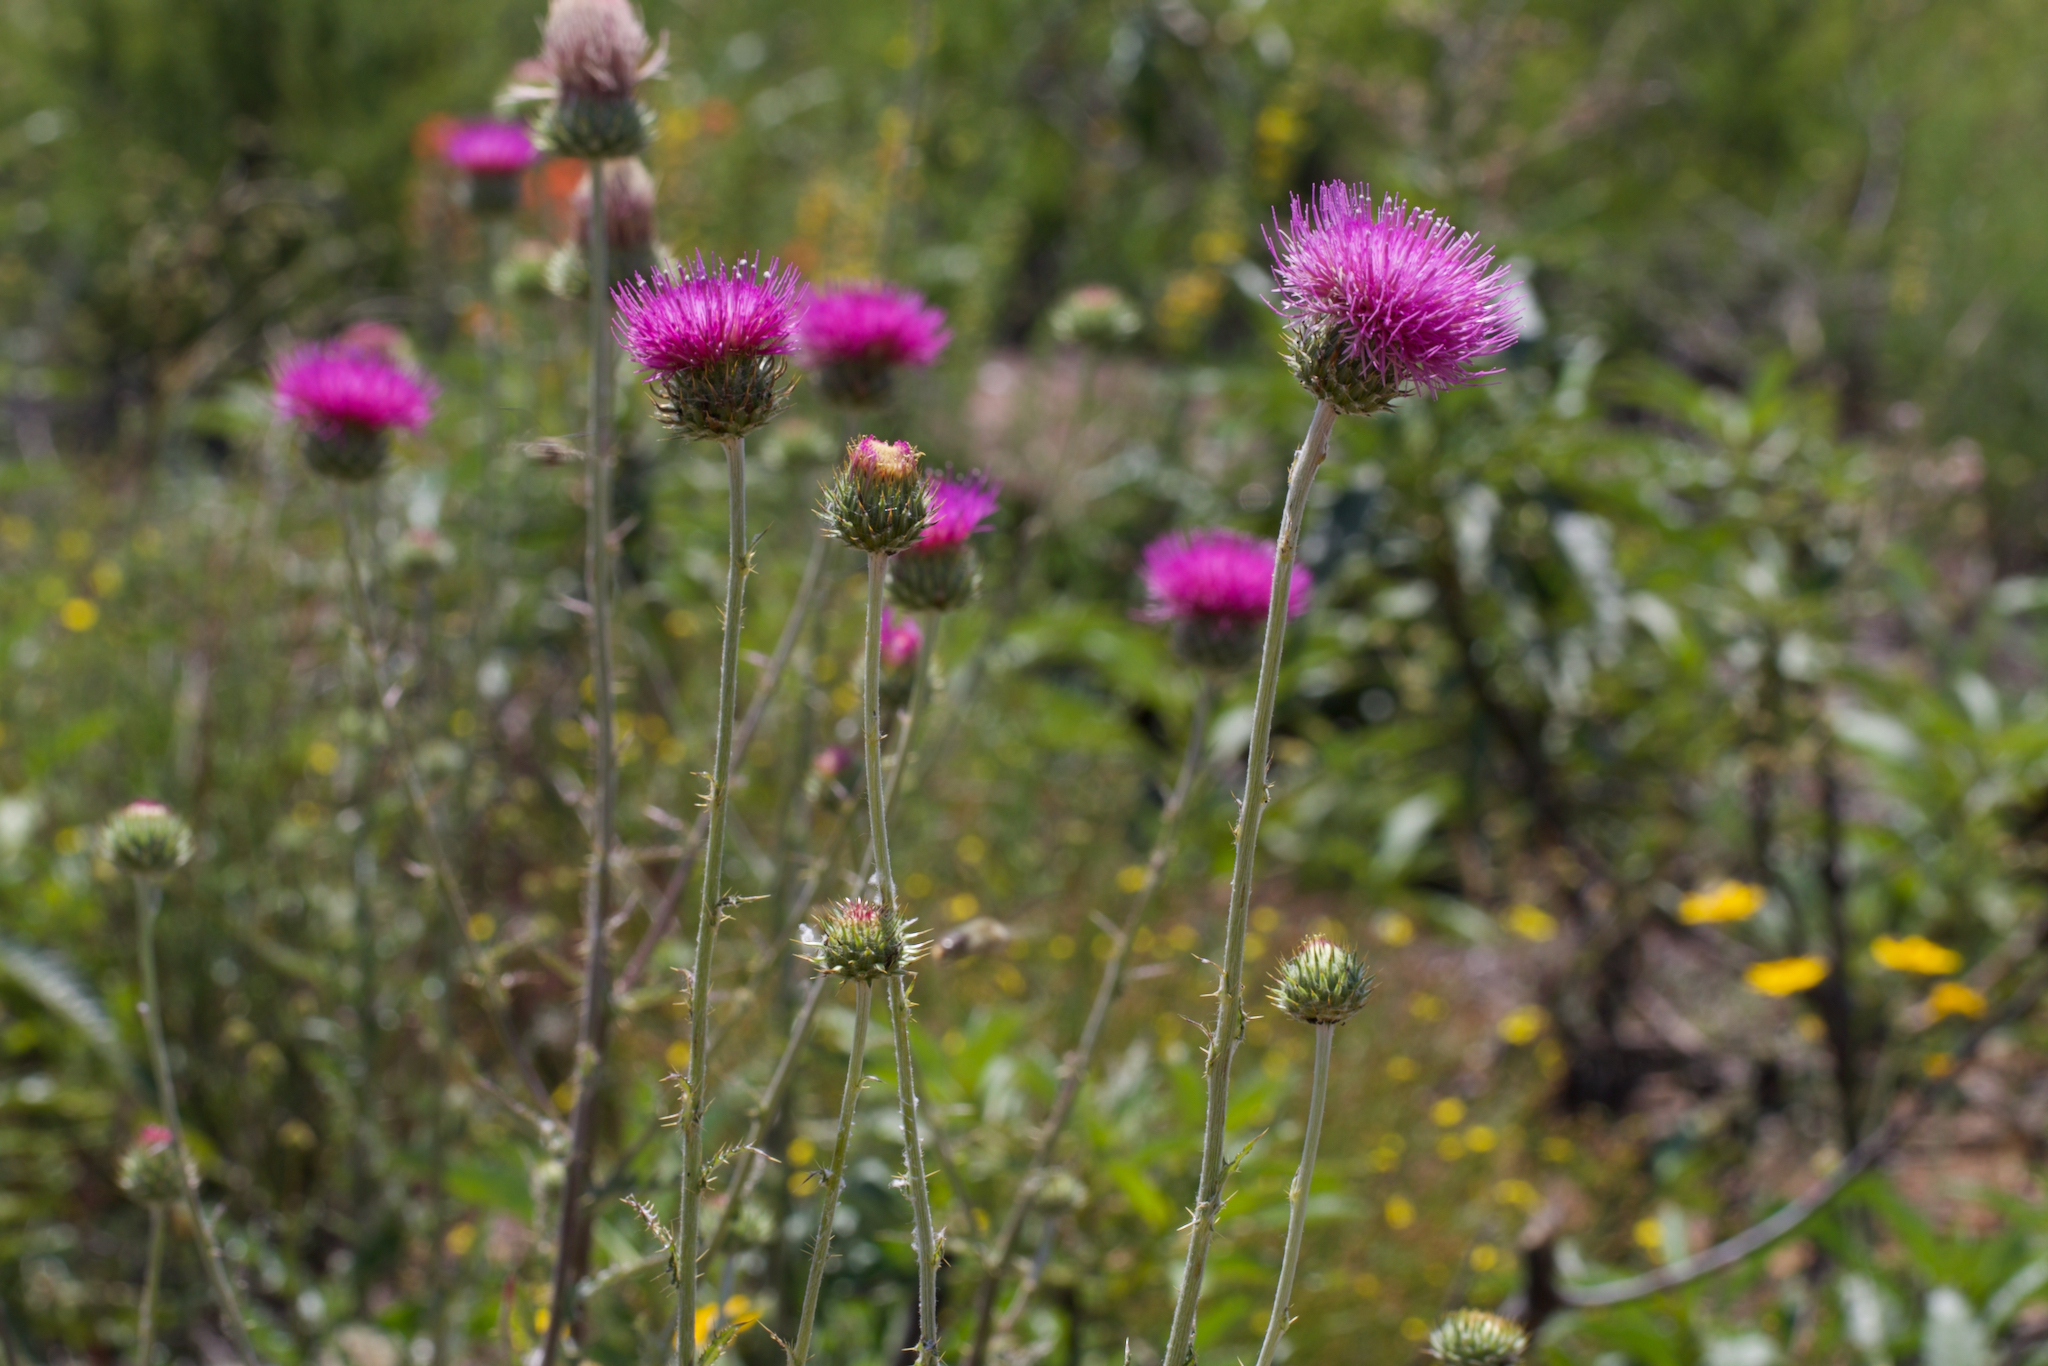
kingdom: Plantae
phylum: Tracheophyta
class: Magnoliopsida
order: Asterales
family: Asteraceae
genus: Cirsium
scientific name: Cirsium occidentale
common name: Western thistle
